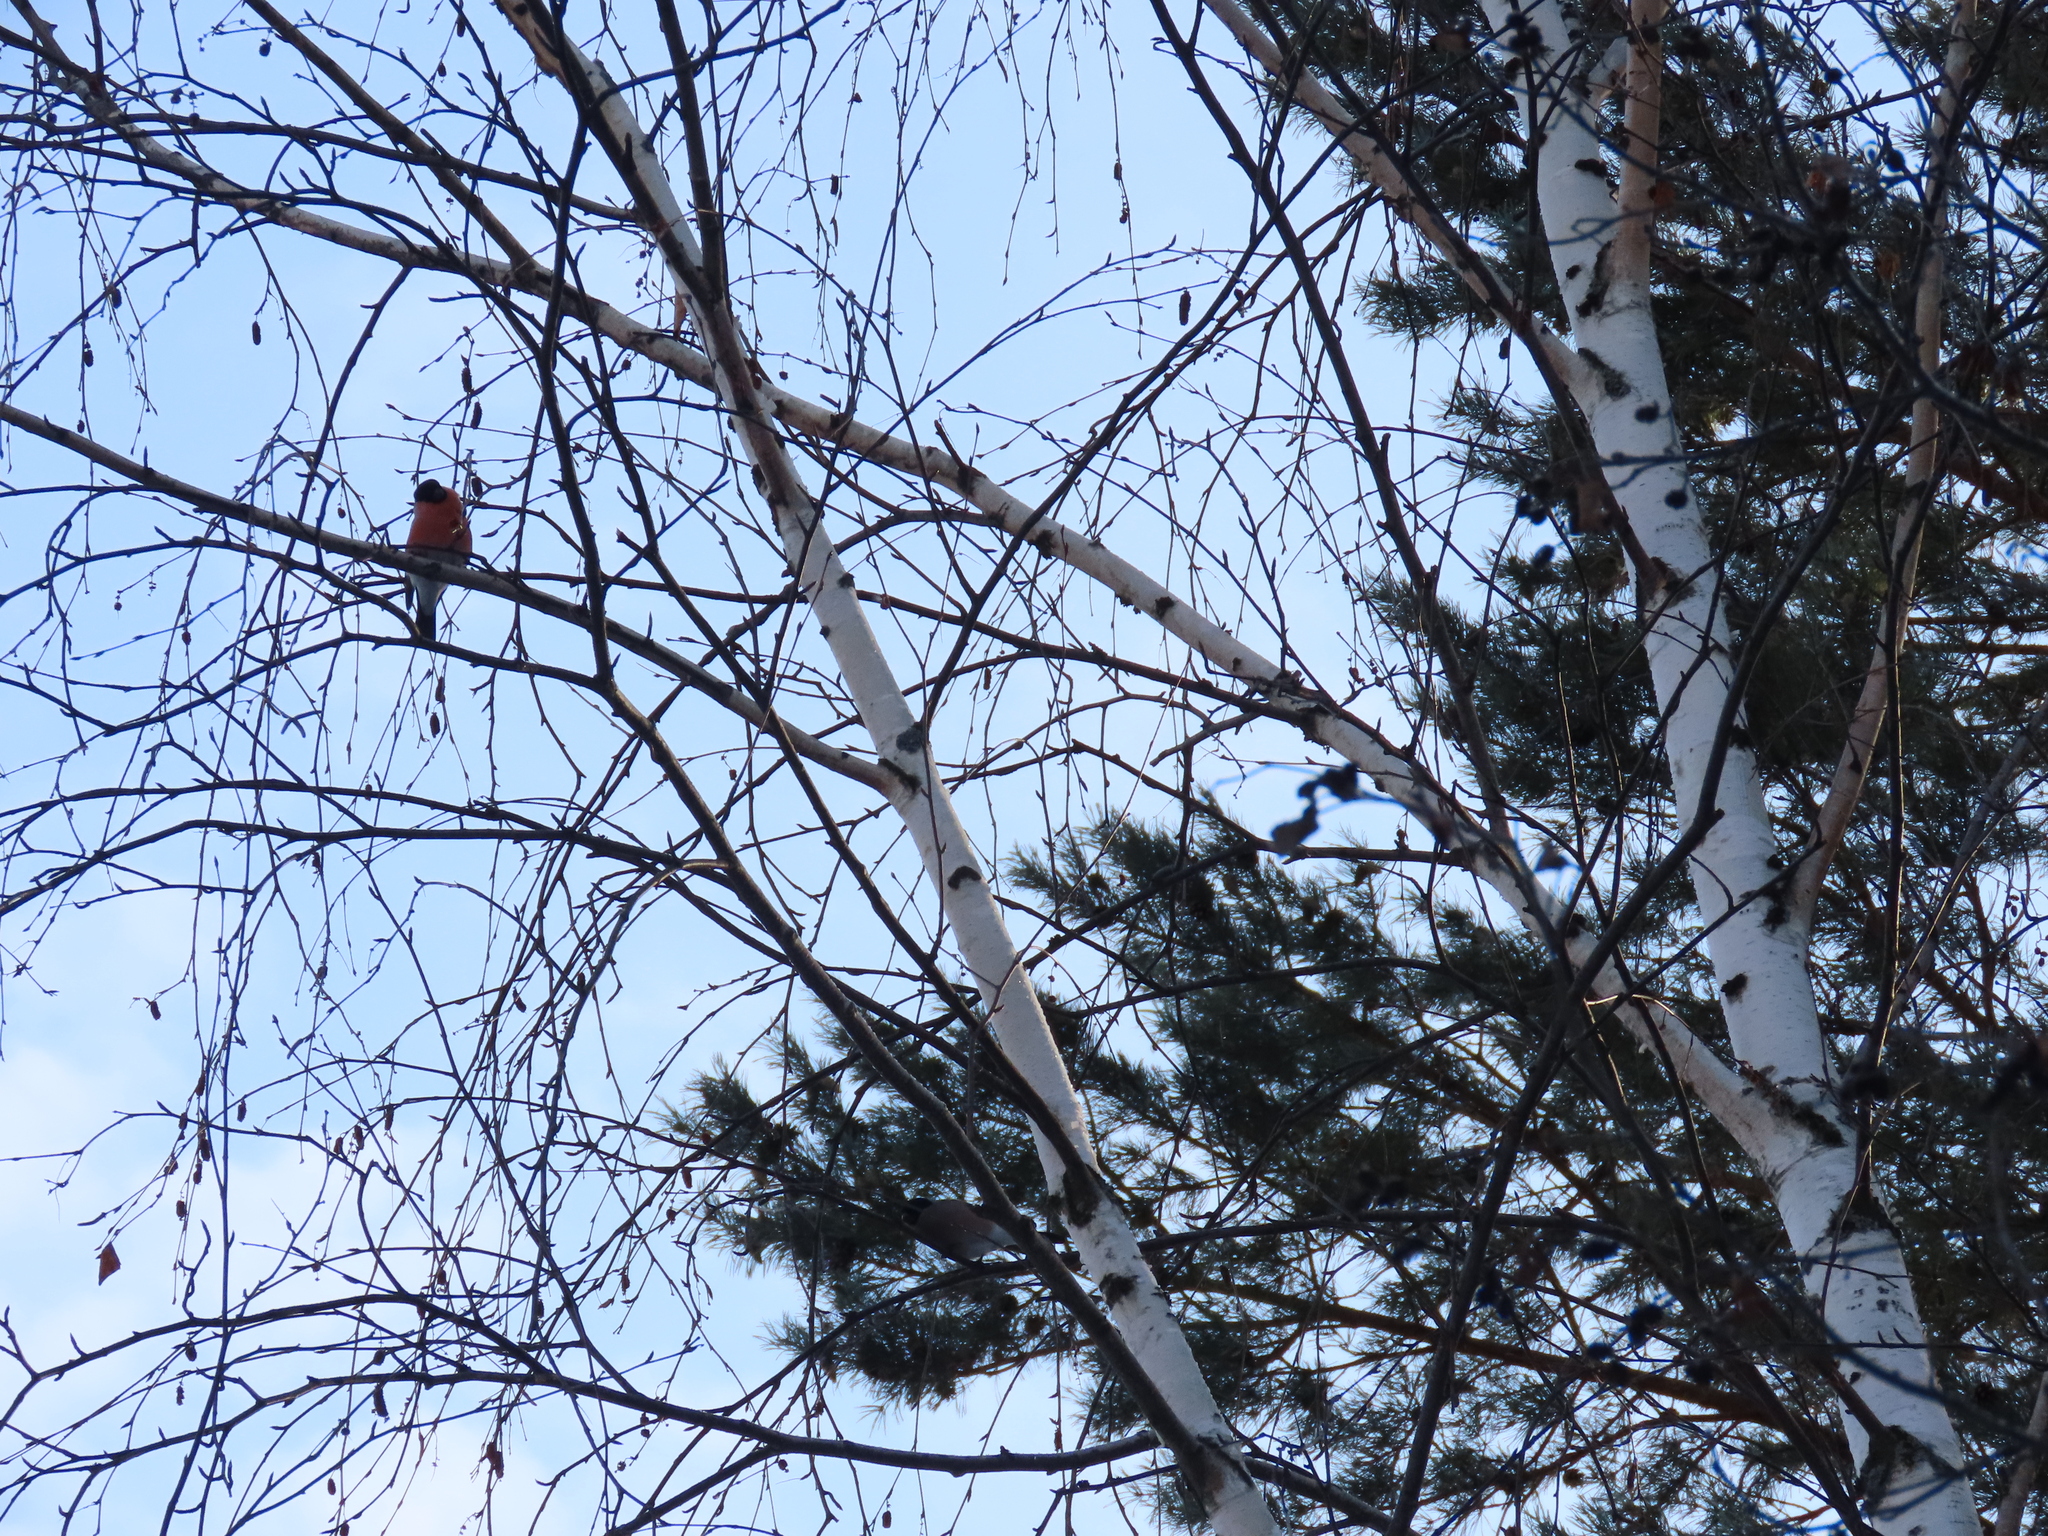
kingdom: Animalia
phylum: Chordata
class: Aves
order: Passeriformes
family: Fringillidae
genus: Pyrrhula
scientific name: Pyrrhula pyrrhula
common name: Eurasian bullfinch
